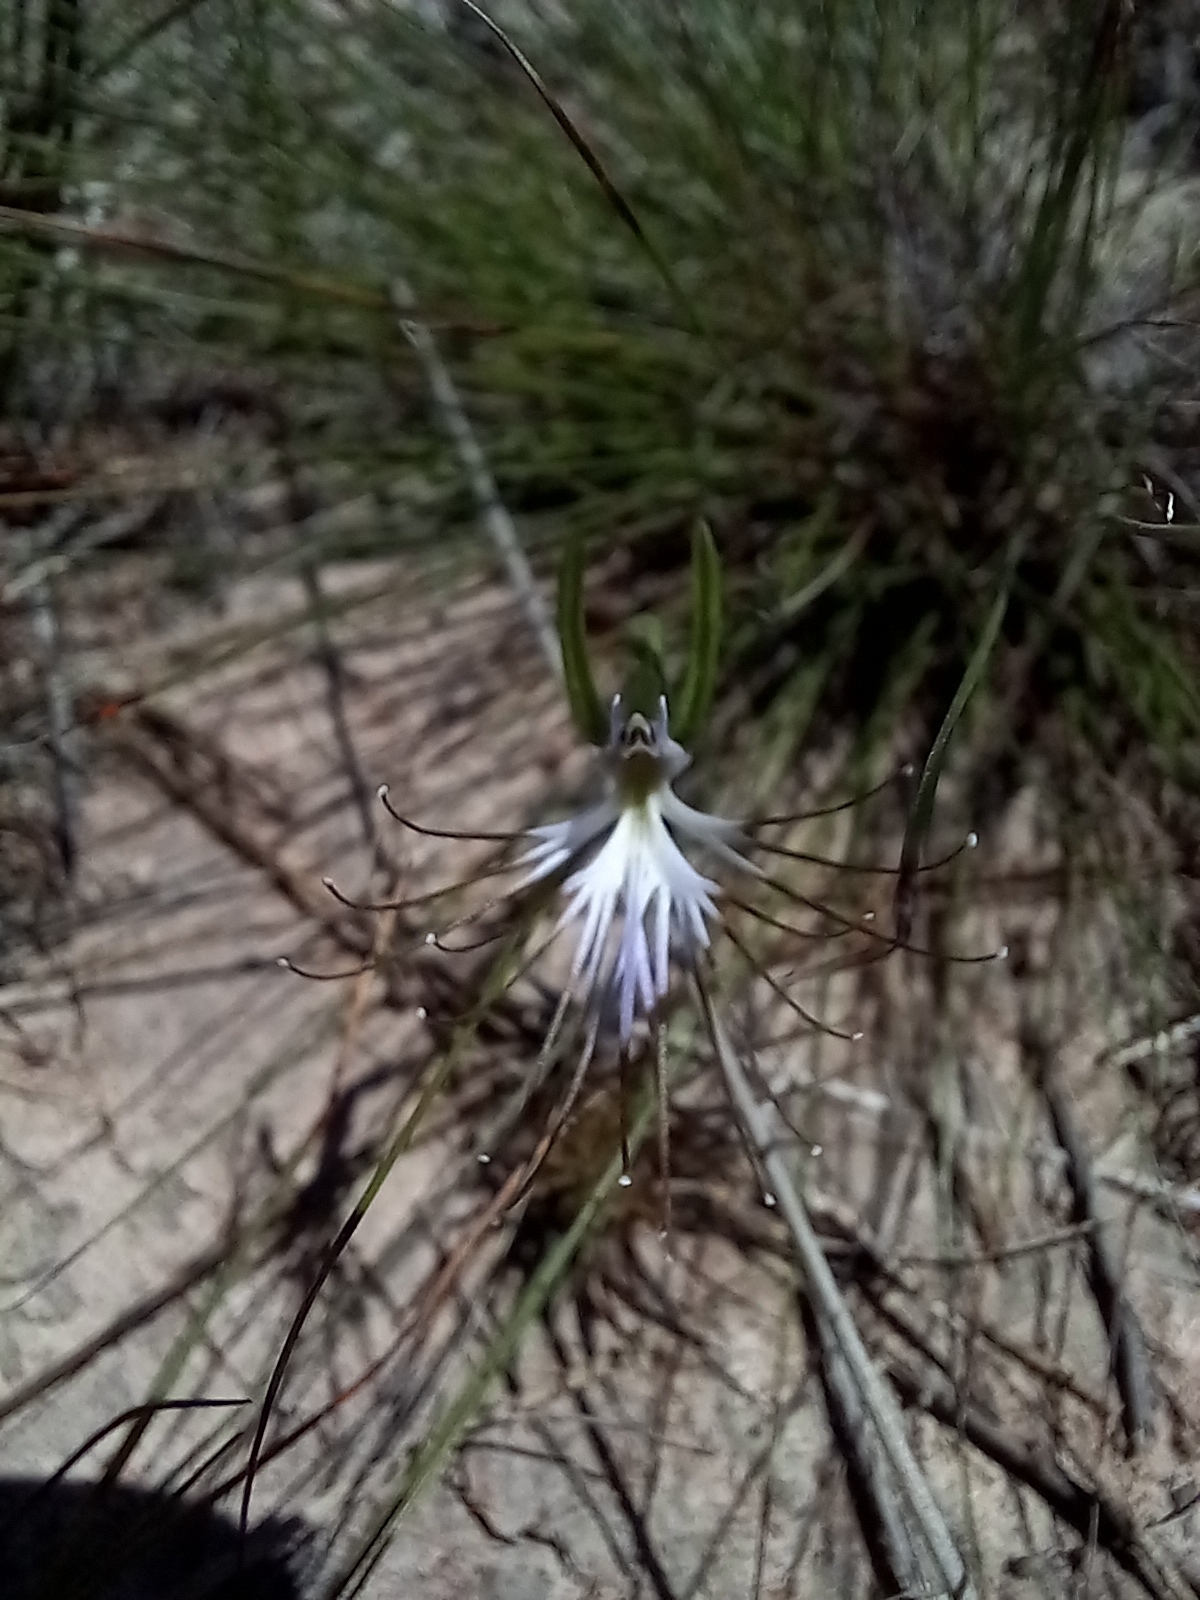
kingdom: Plantae
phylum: Tracheophyta
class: Liliopsida
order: Asparagales
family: Orchidaceae
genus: Holothrix
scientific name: Holothrix etheliae
